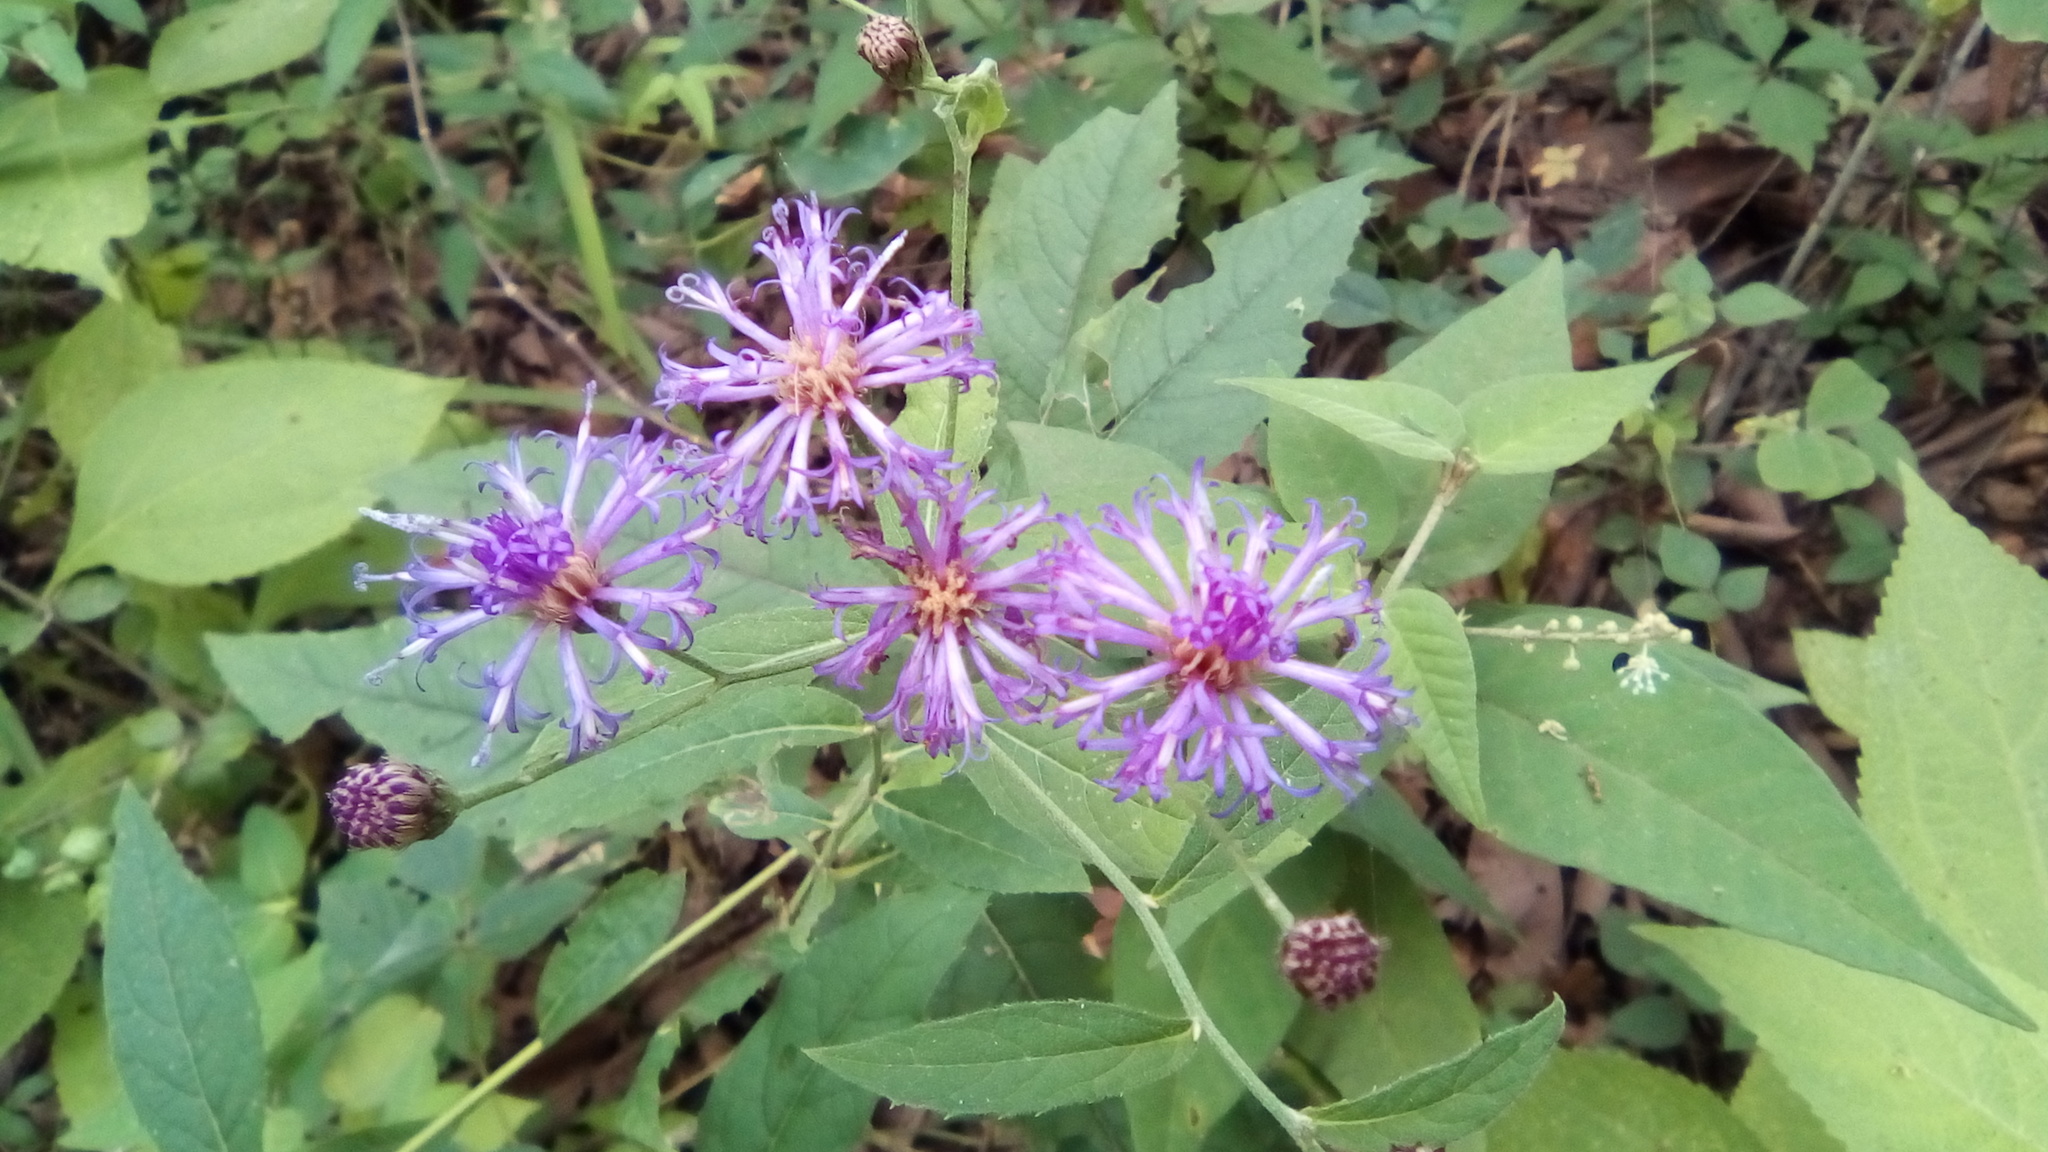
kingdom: Plantae
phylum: Tracheophyta
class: Magnoliopsida
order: Asterales
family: Asteraceae
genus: Vernonia
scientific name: Vernonia greggii
